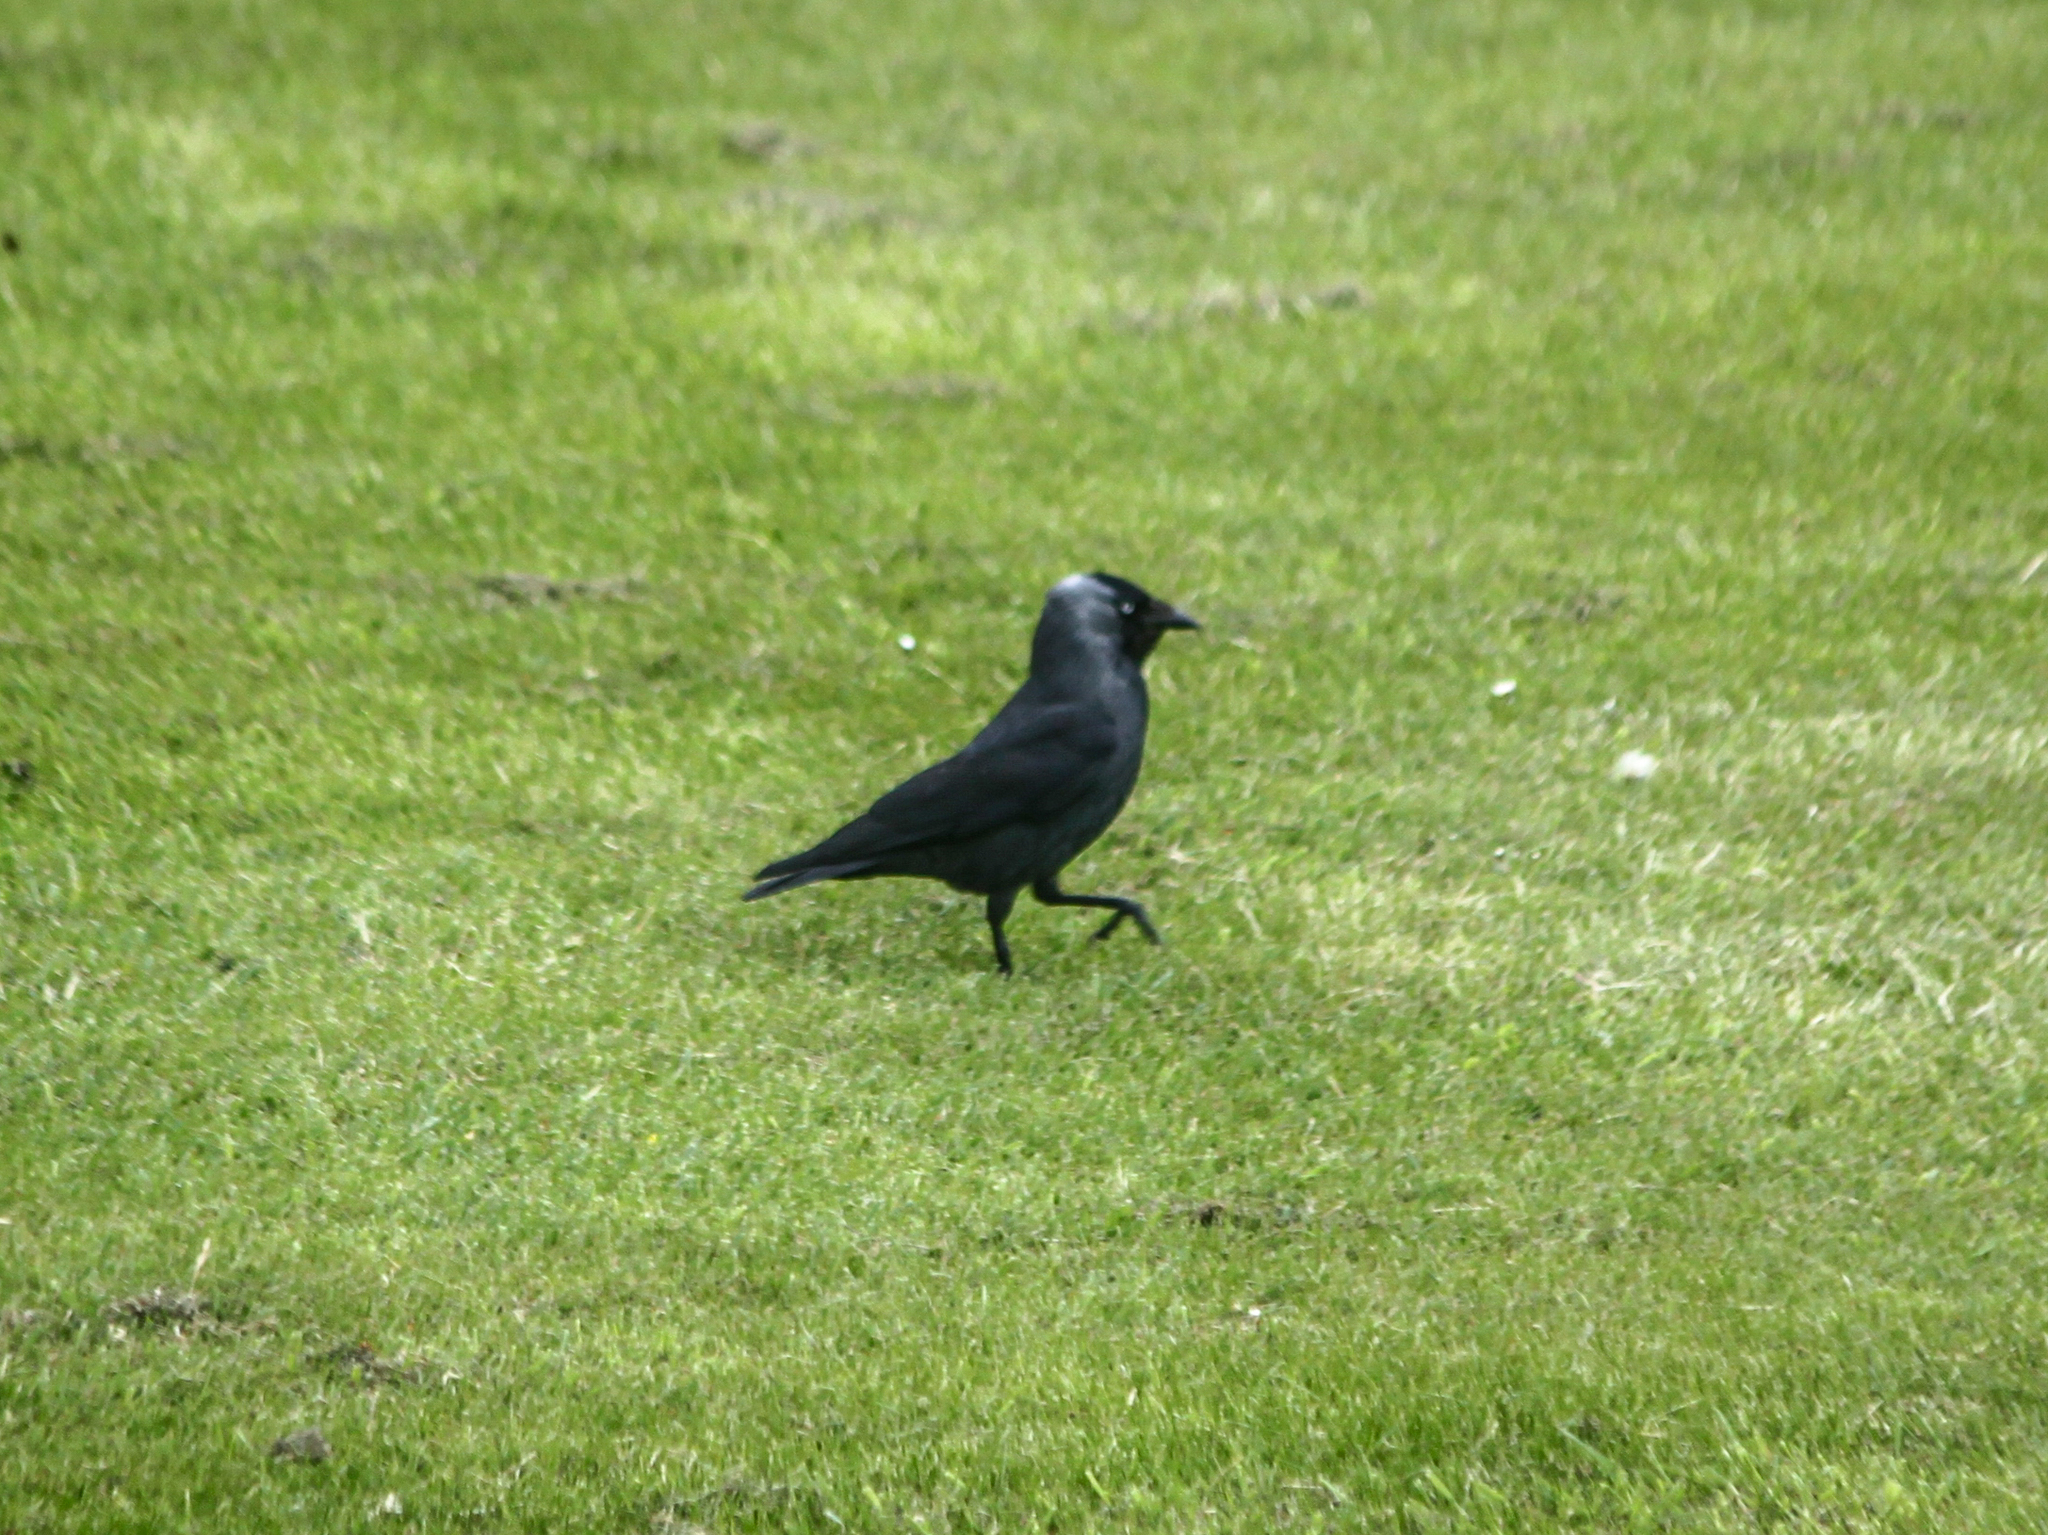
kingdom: Animalia
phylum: Chordata
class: Aves
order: Passeriformes
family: Corvidae
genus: Coloeus
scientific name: Coloeus monedula
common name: Western jackdaw
